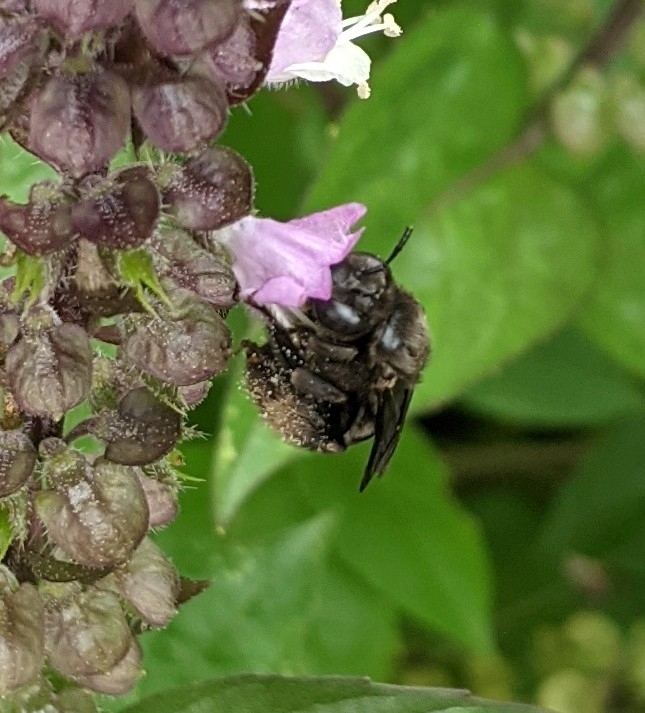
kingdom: Animalia
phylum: Arthropoda
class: Insecta
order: Hymenoptera
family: Apidae
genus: Melissodes
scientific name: Melissodes bimaculatus
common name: Two-spotted long-horned bee
